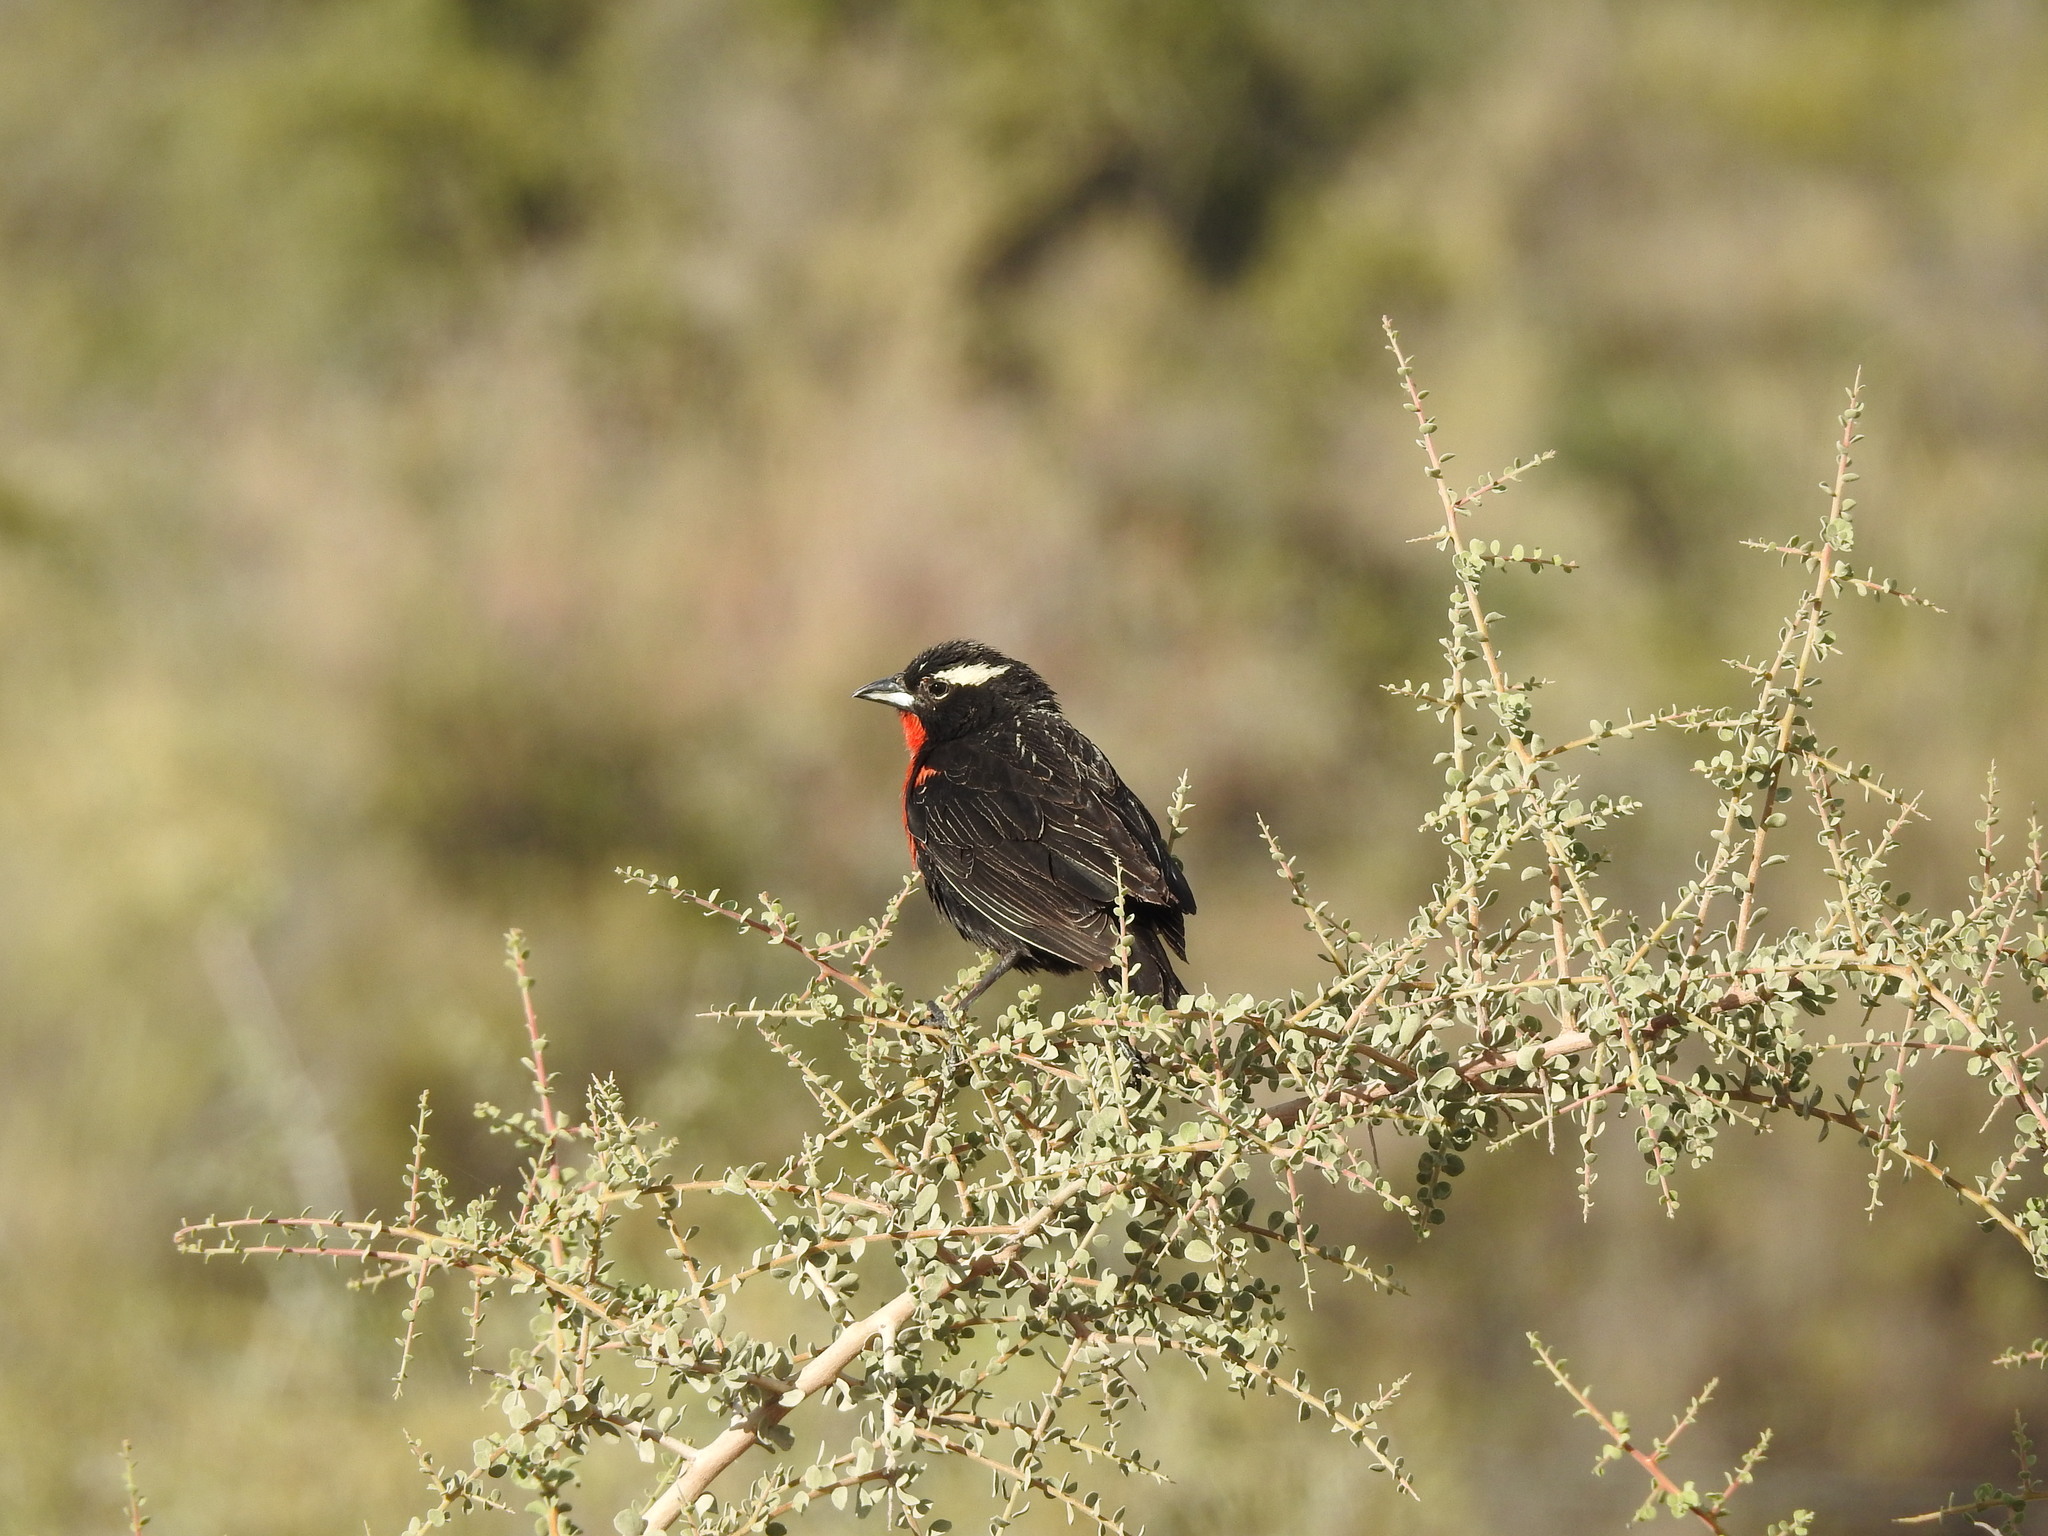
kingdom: Animalia
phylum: Chordata
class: Aves
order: Passeriformes
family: Icteridae
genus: Sturnella
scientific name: Sturnella superciliaris
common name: White-browed blackbird
